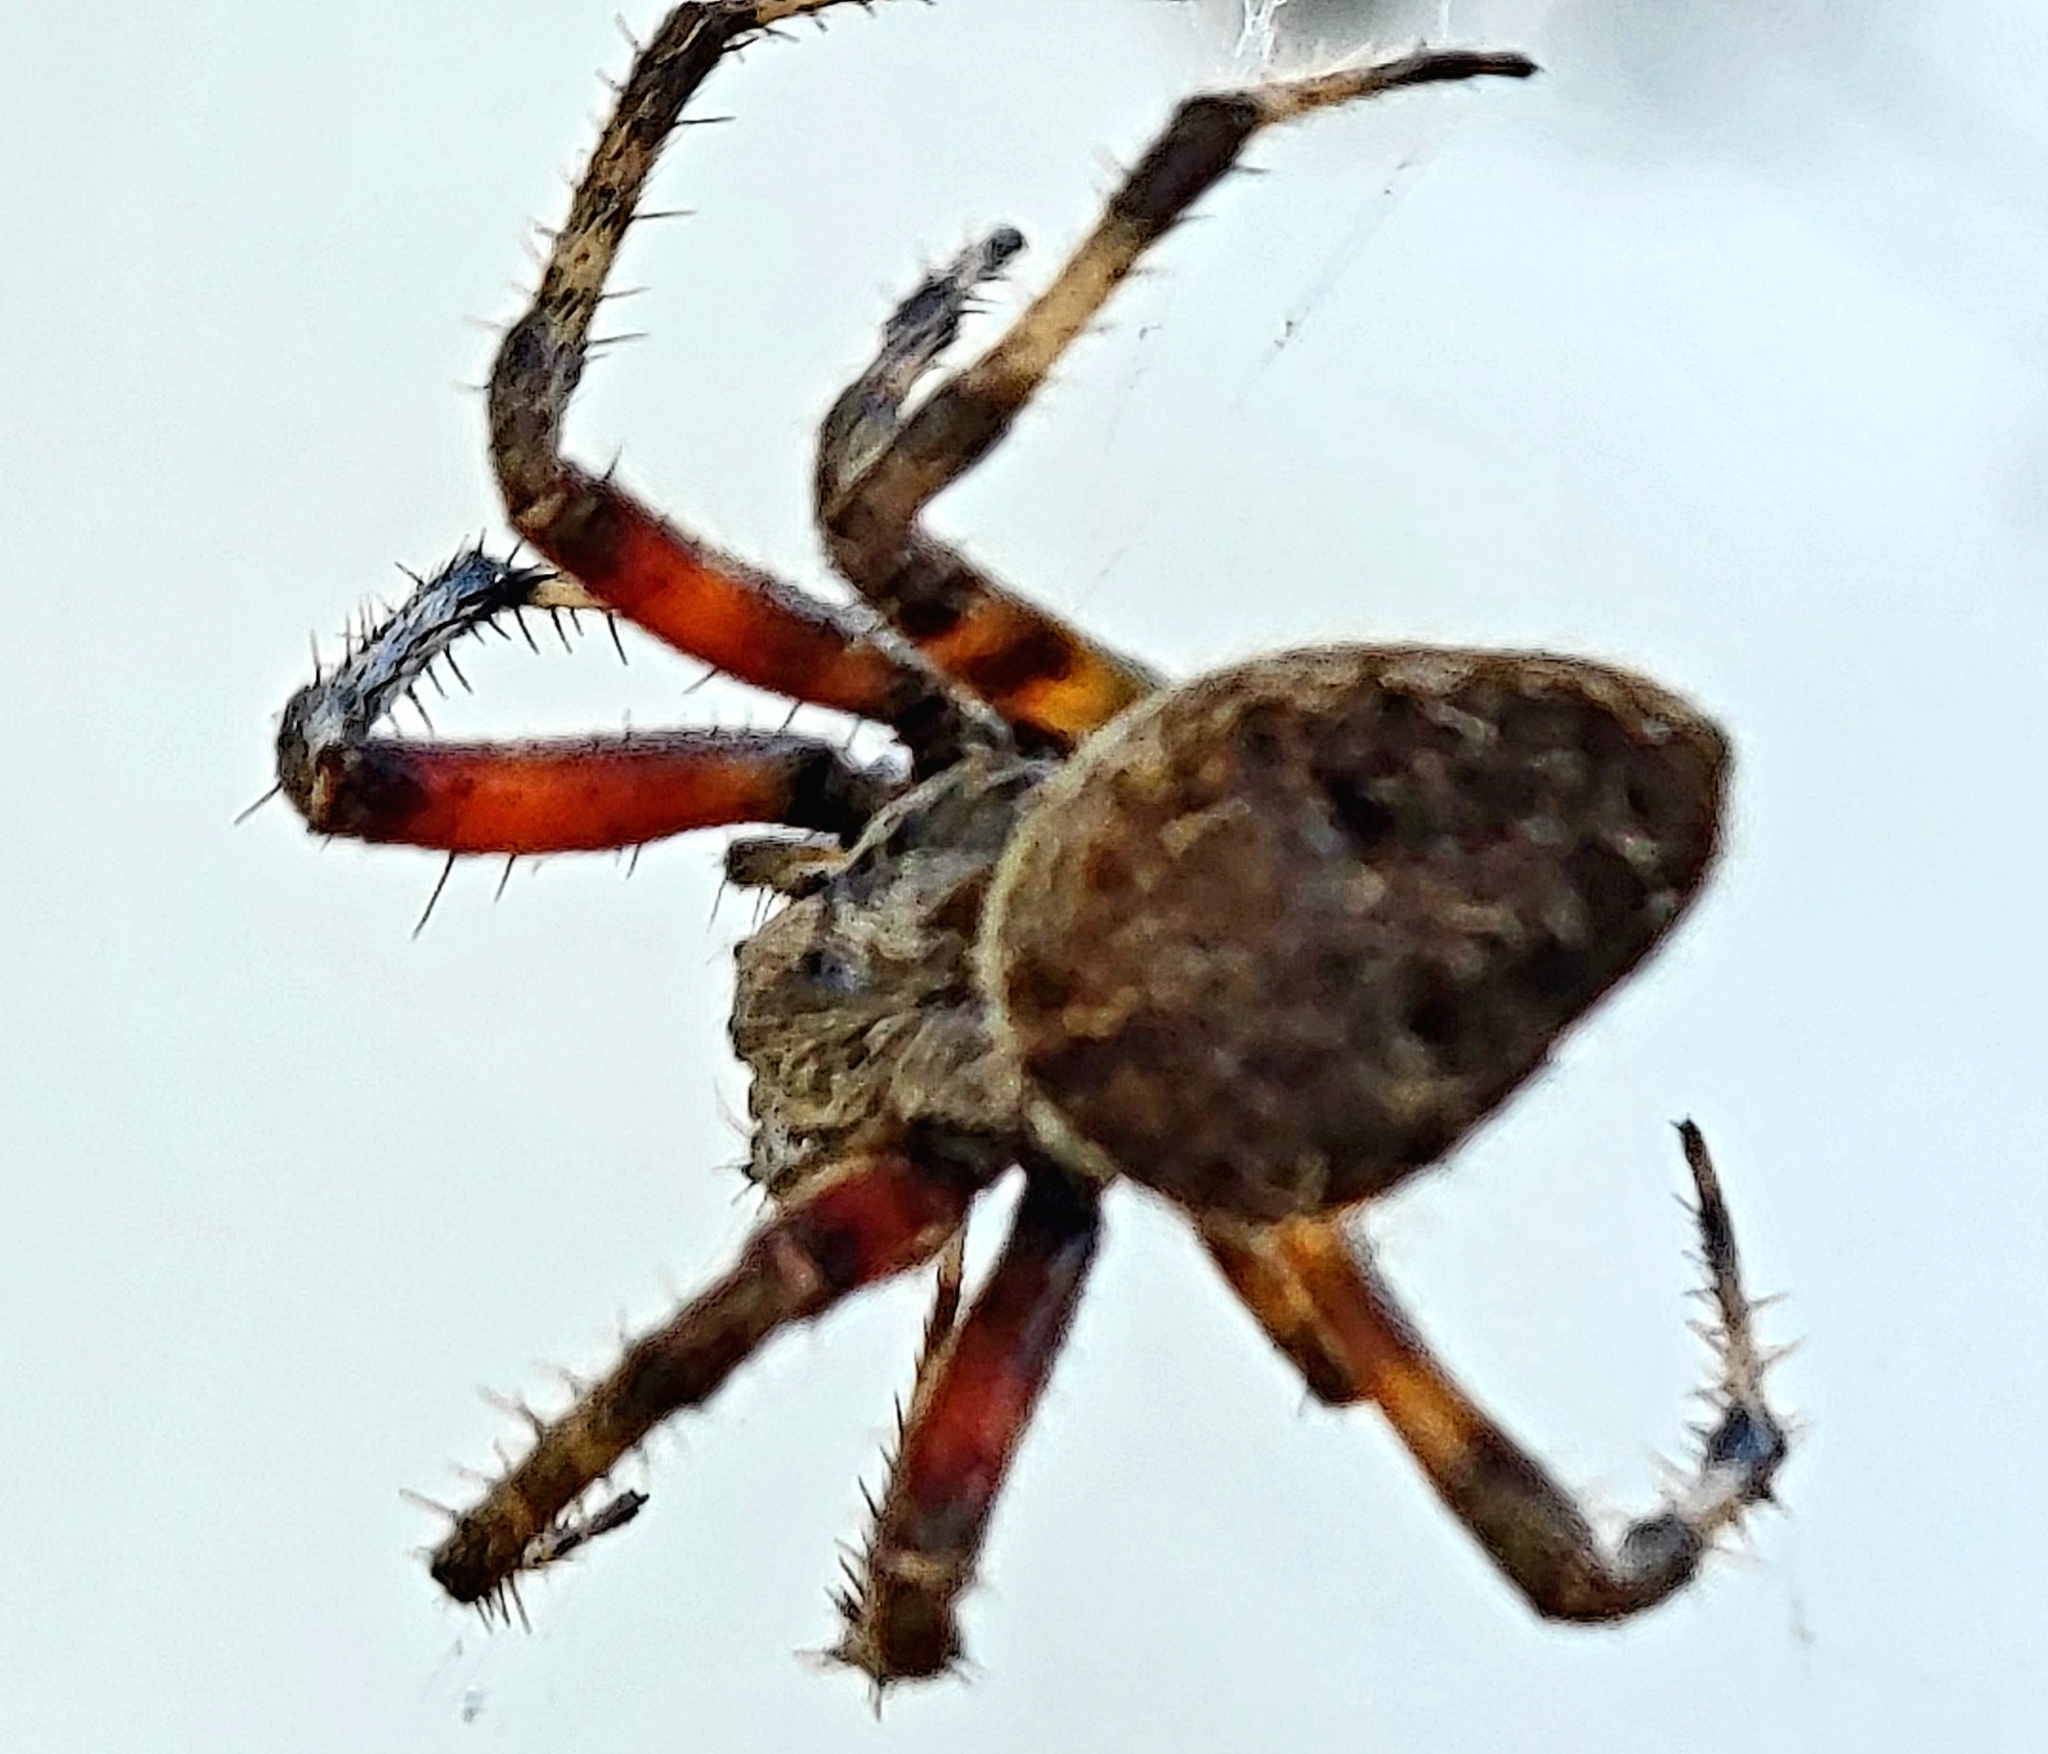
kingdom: Animalia
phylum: Arthropoda
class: Arachnida
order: Araneae
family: Araneidae
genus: Neoscona
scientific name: Neoscona domiciliorum
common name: Red-femured spotted orbweaver
